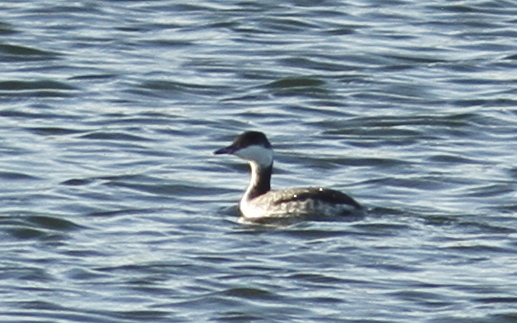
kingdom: Animalia
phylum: Chordata
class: Aves
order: Podicipediformes
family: Podicipedidae
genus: Podiceps
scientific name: Podiceps auritus
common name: Horned grebe
